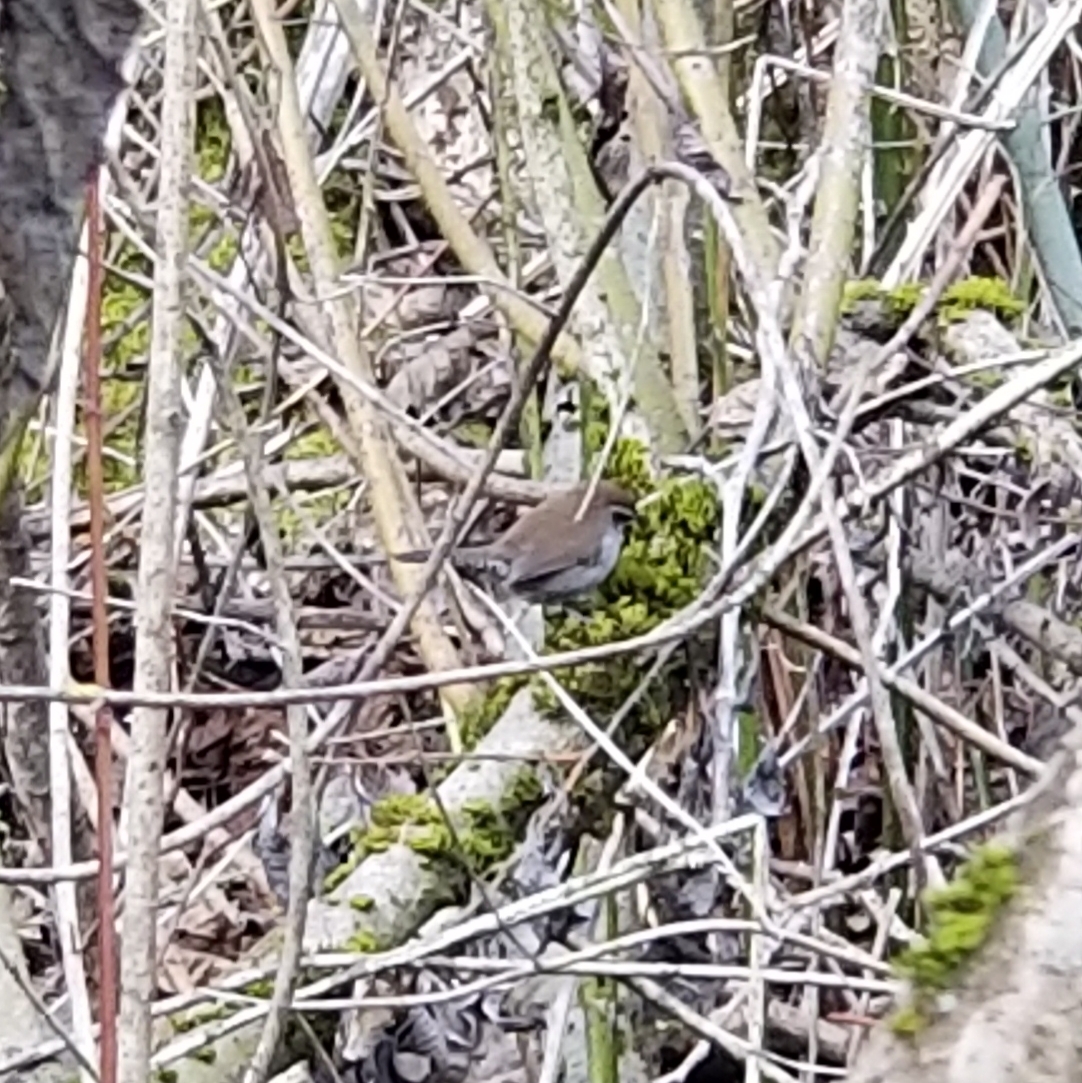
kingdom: Animalia
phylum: Chordata
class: Aves
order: Passeriformes
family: Troglodytidae
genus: Thryomanes
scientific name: Thryomanes bewickii
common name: Bewick's wren
